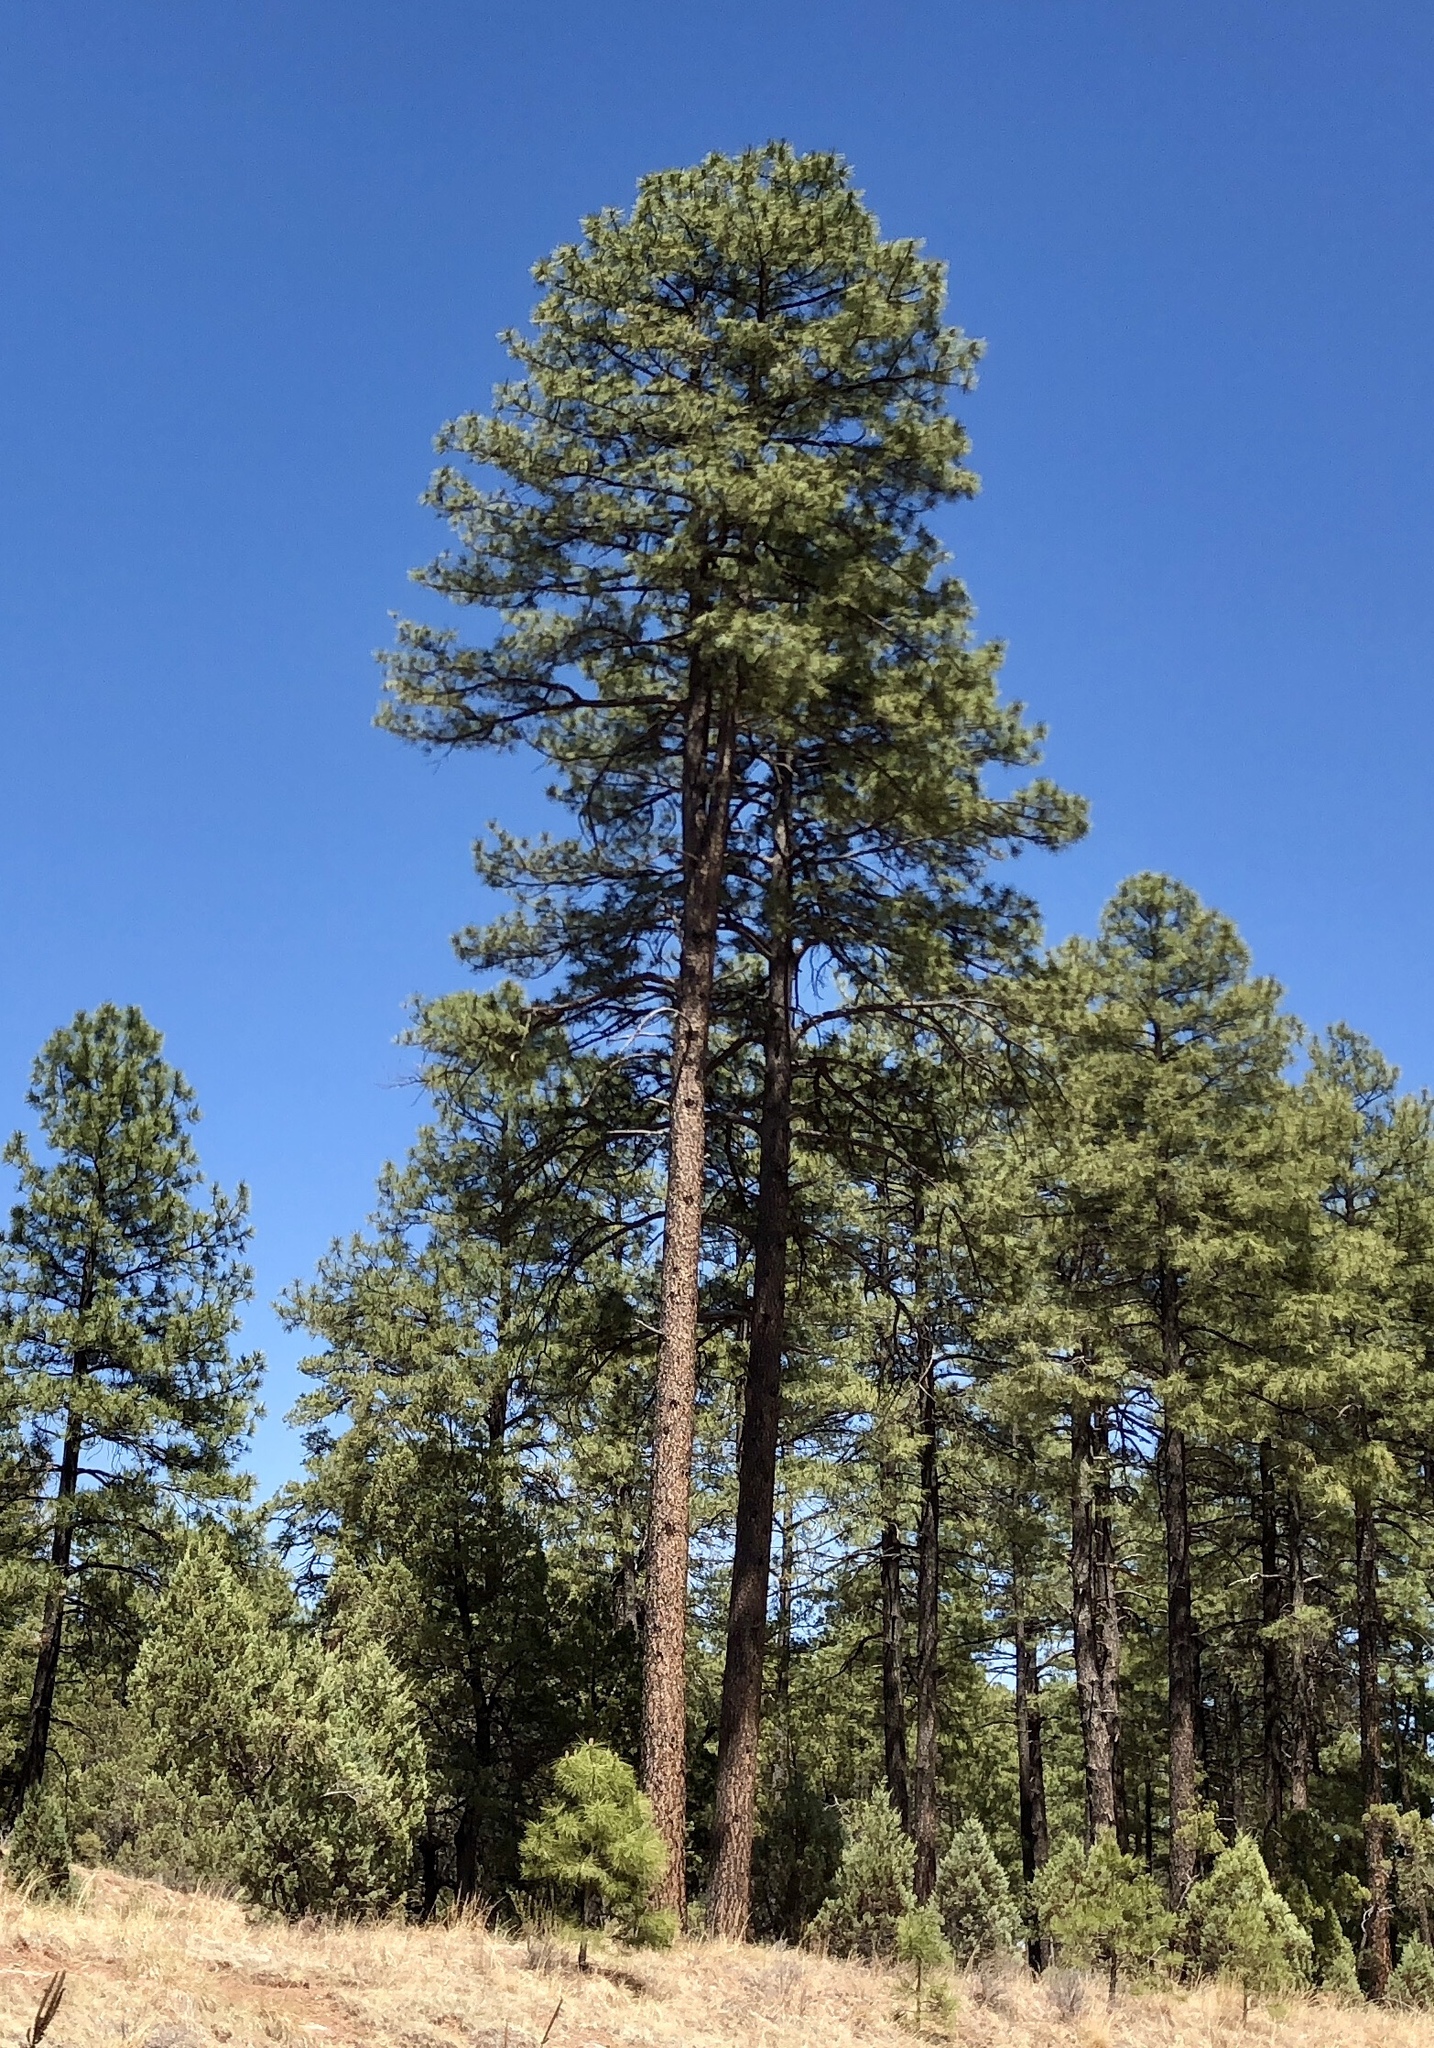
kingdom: Plantae
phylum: Tracheophyta
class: Pinopsida
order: Pinales
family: Pinaceae
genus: Pinus
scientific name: Pinus ponderosa
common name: Western yellow-pine
